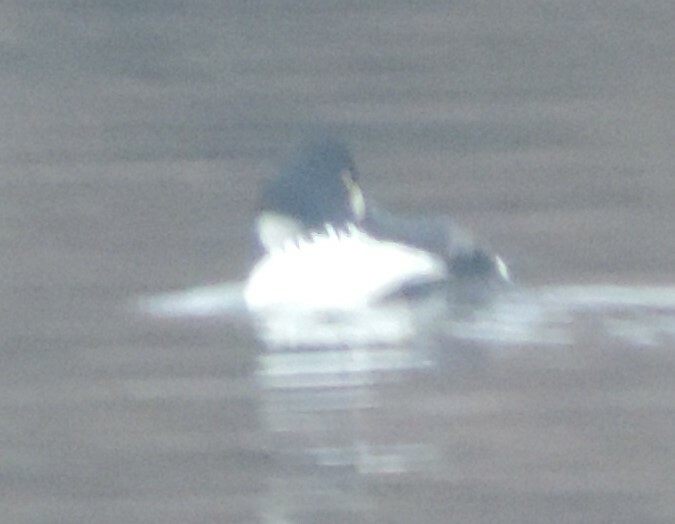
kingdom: Animalia
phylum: Chordata
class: Aves
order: Anseriformes
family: Anatidae
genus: Bucephala
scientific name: Bucephala clangula
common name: Common goldeneye
